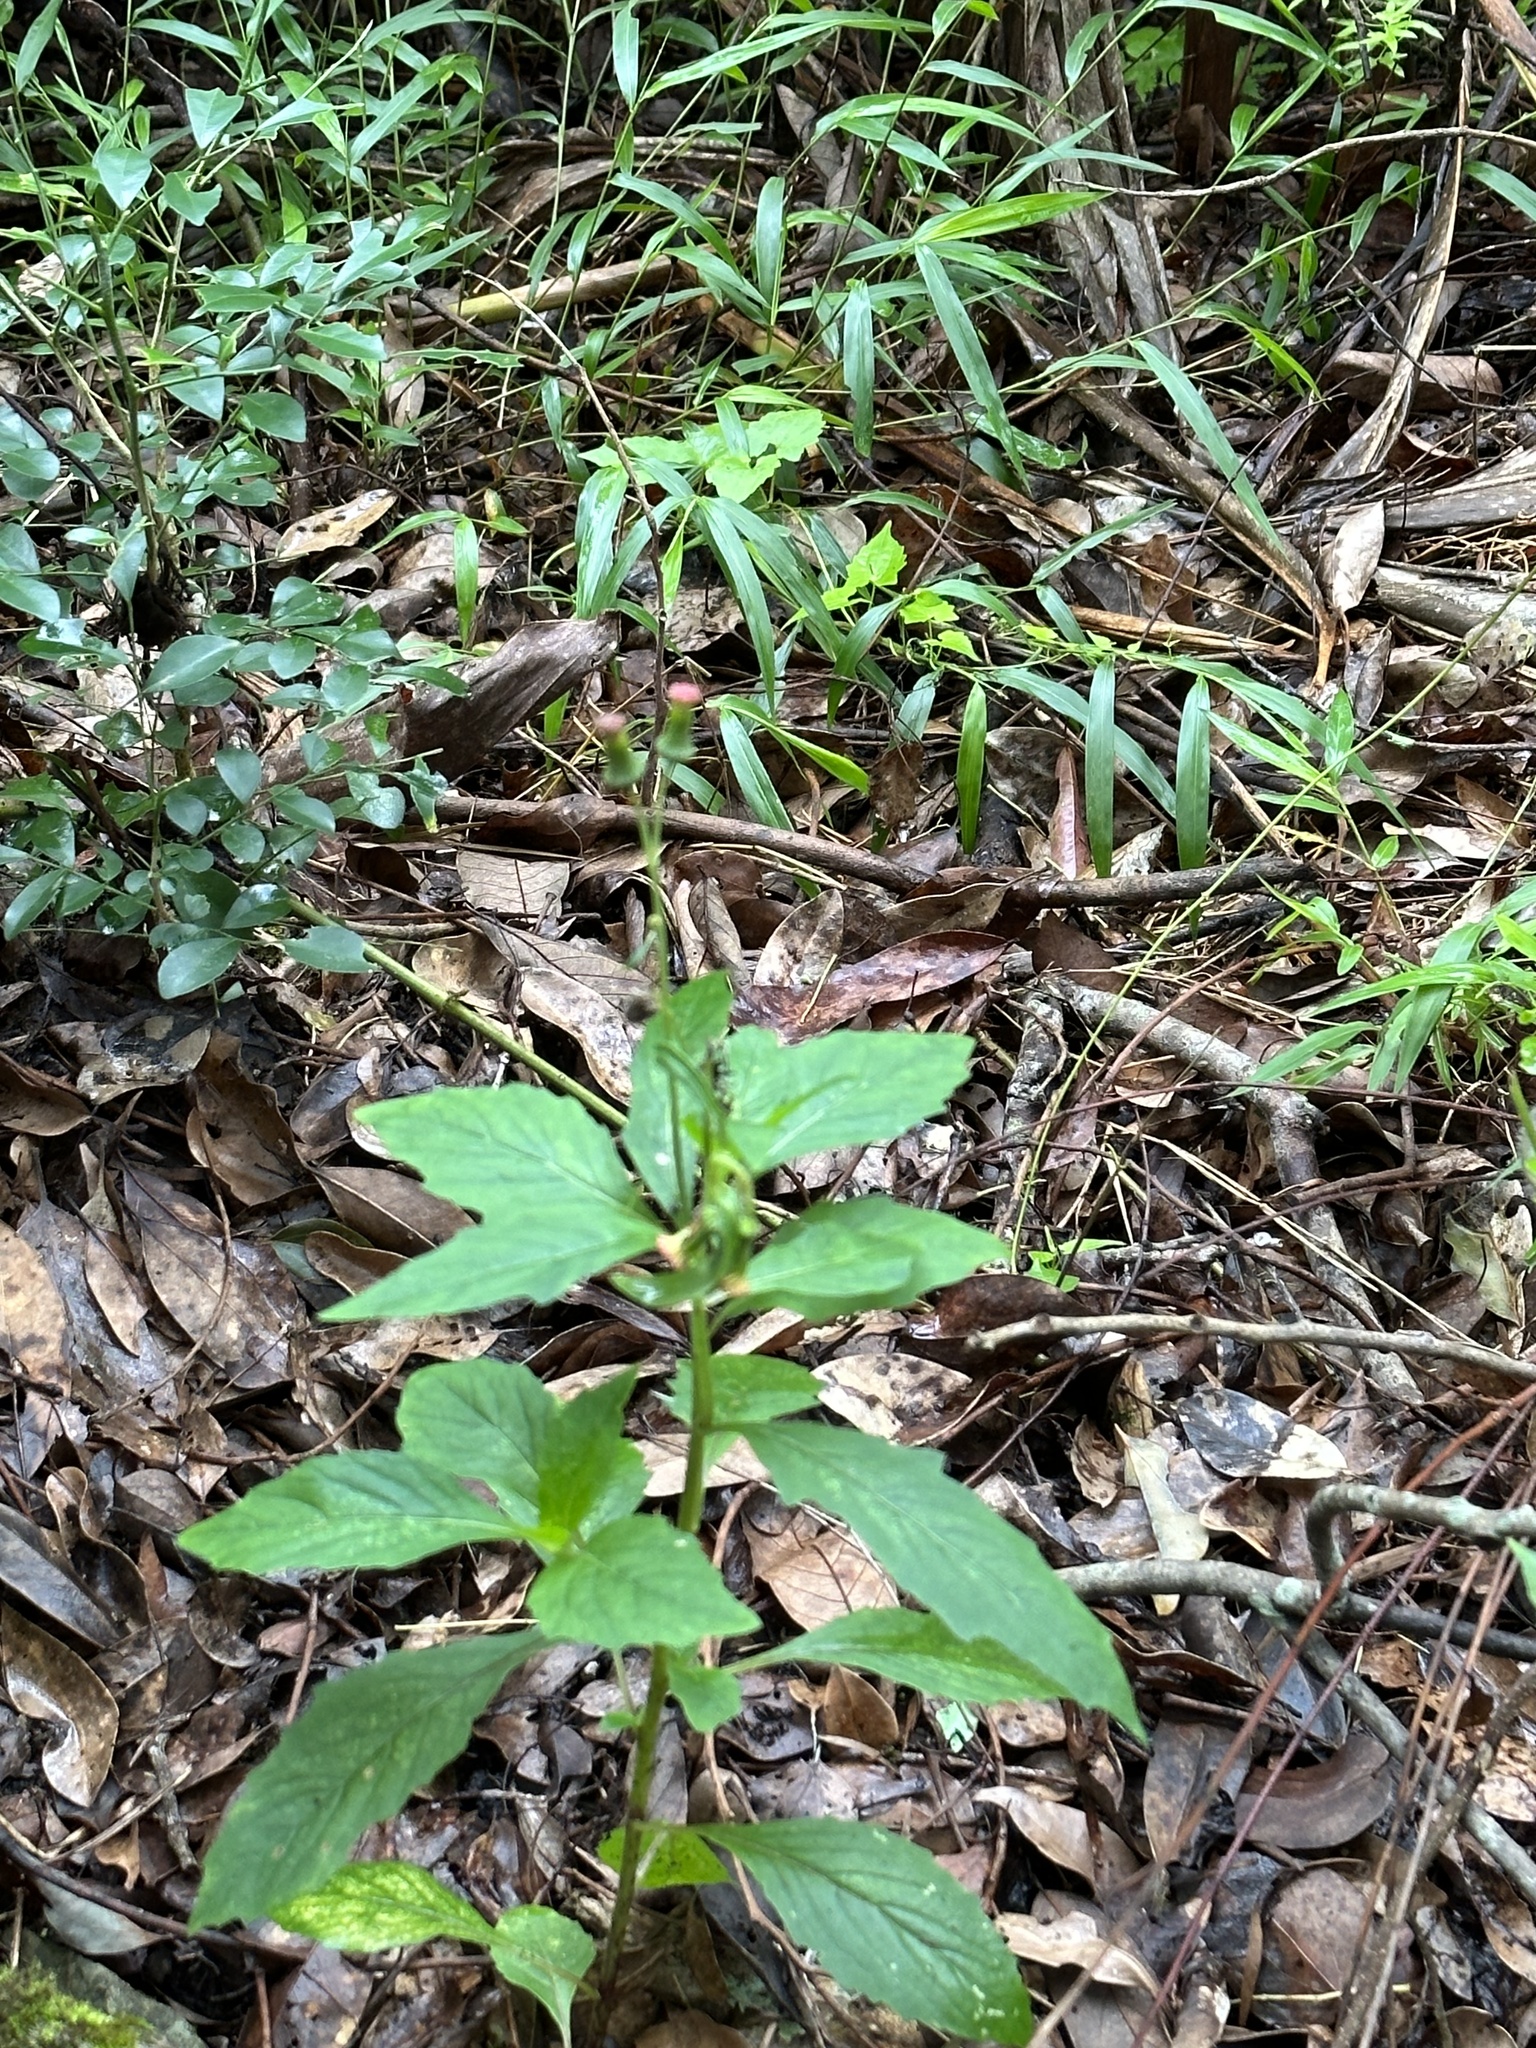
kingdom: Plantae
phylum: Tracheophyta
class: Magnoliopsida
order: Asterales
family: Asteraceae
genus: Crassocephalum
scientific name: Crassocephalum crepidioides
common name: Redflower ragleaf
